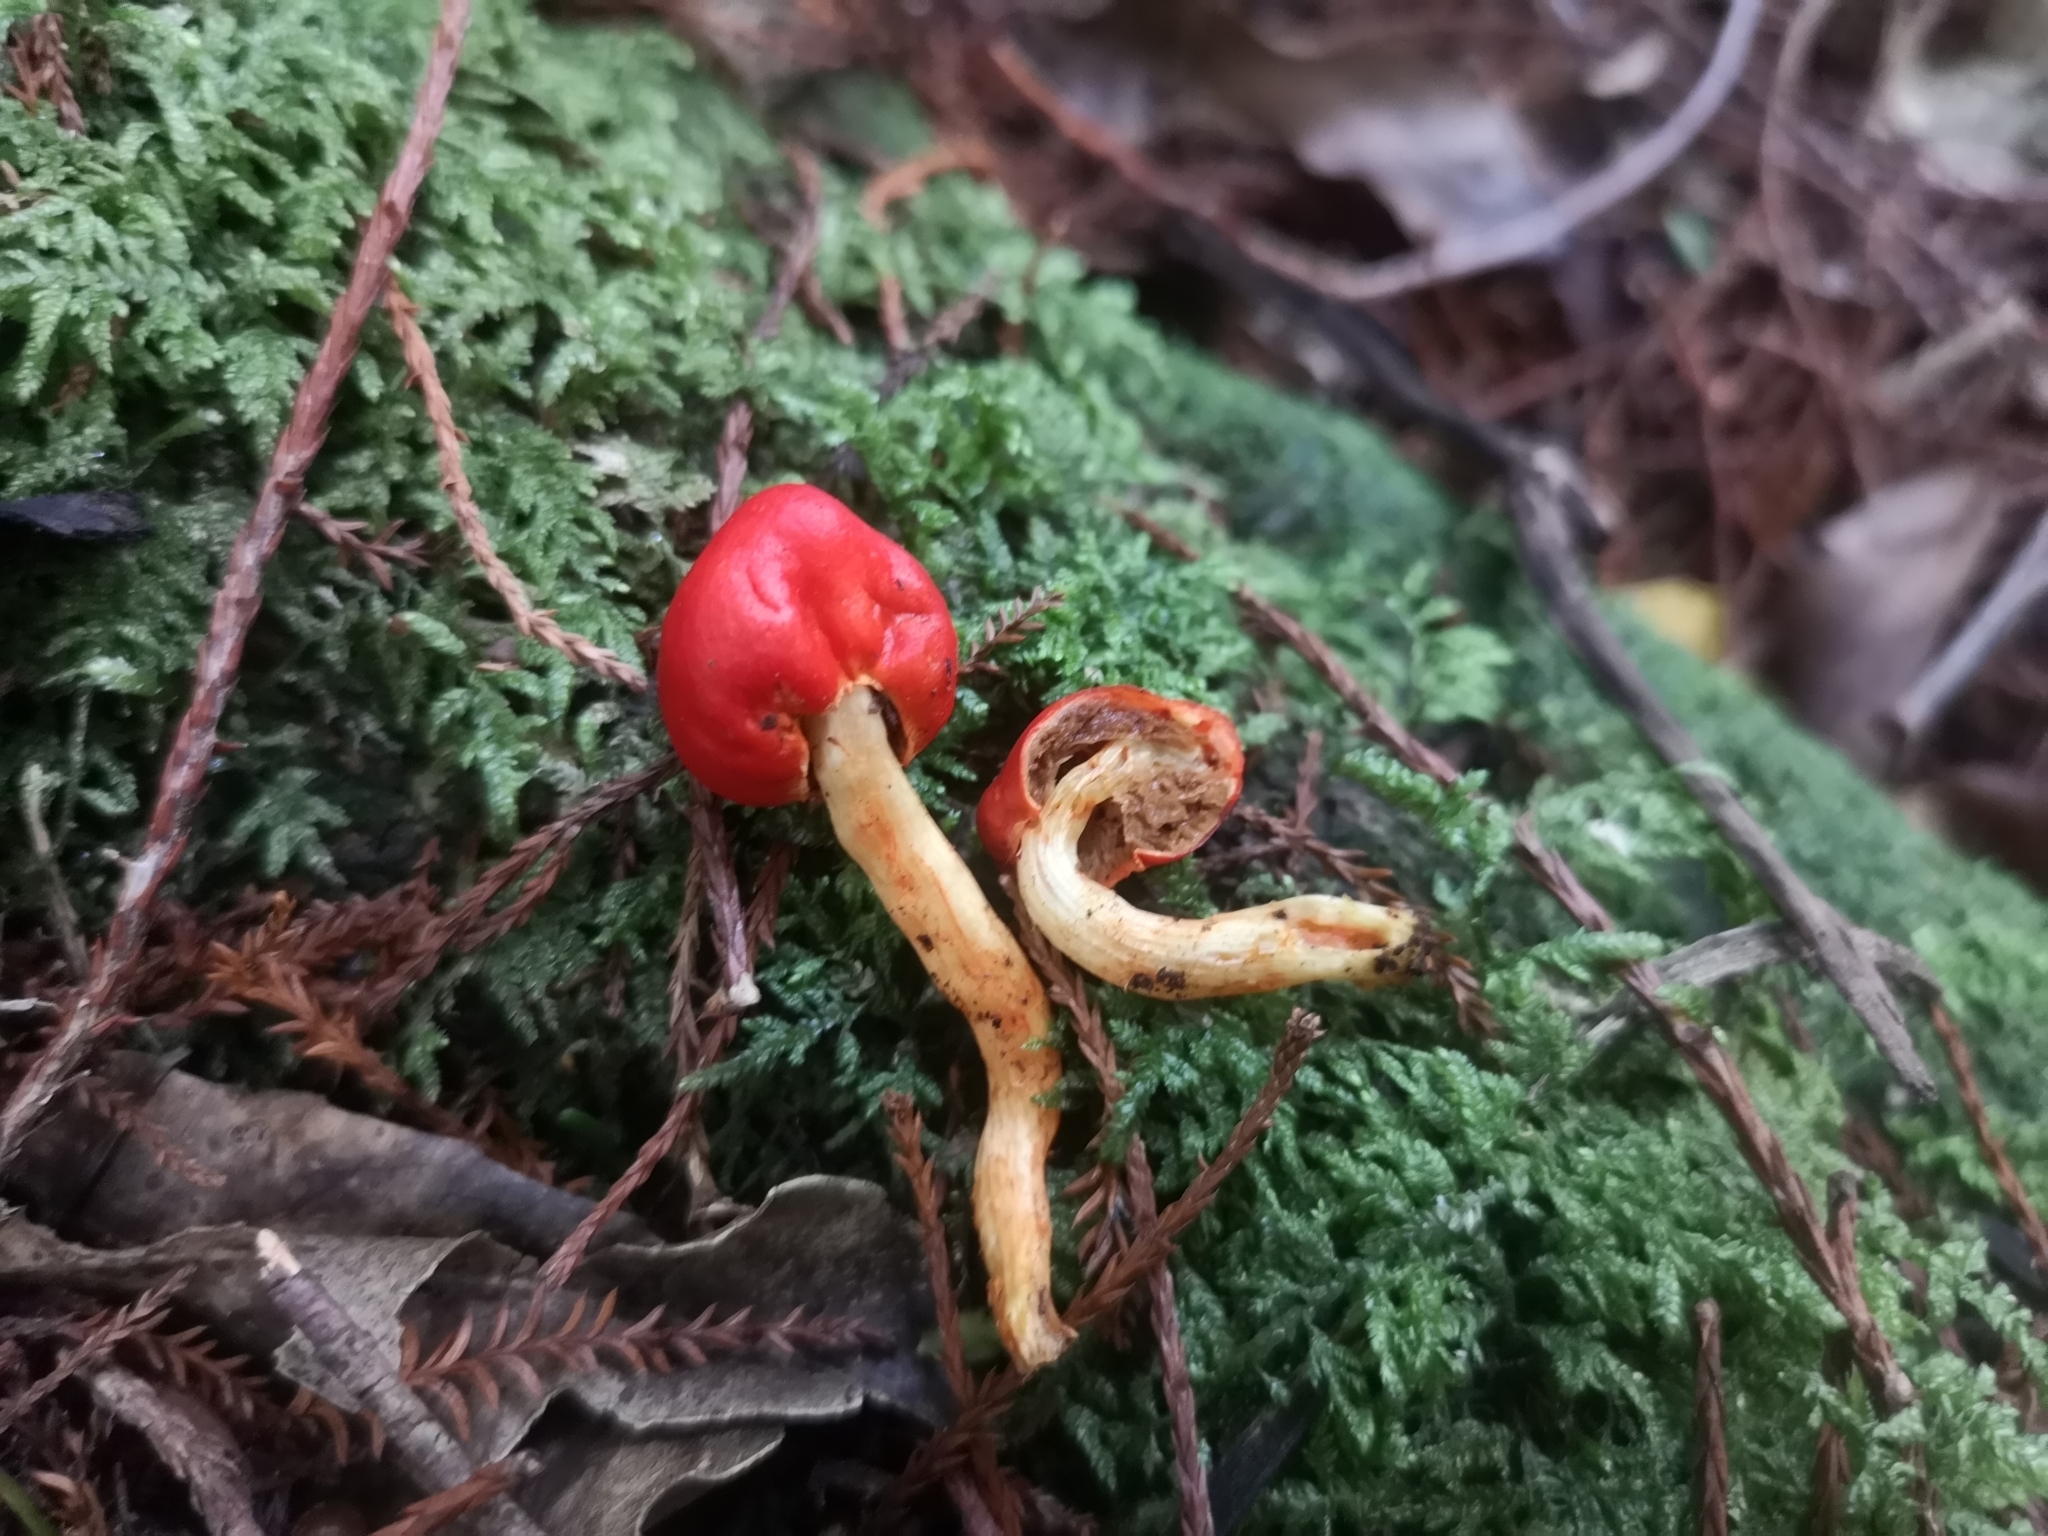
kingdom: Fungi
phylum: Basidiomycota
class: Agaricomycetes
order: Agaricales
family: Strophariaceae
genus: Leratiomyces
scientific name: Leratiomyces erythrocephalus
